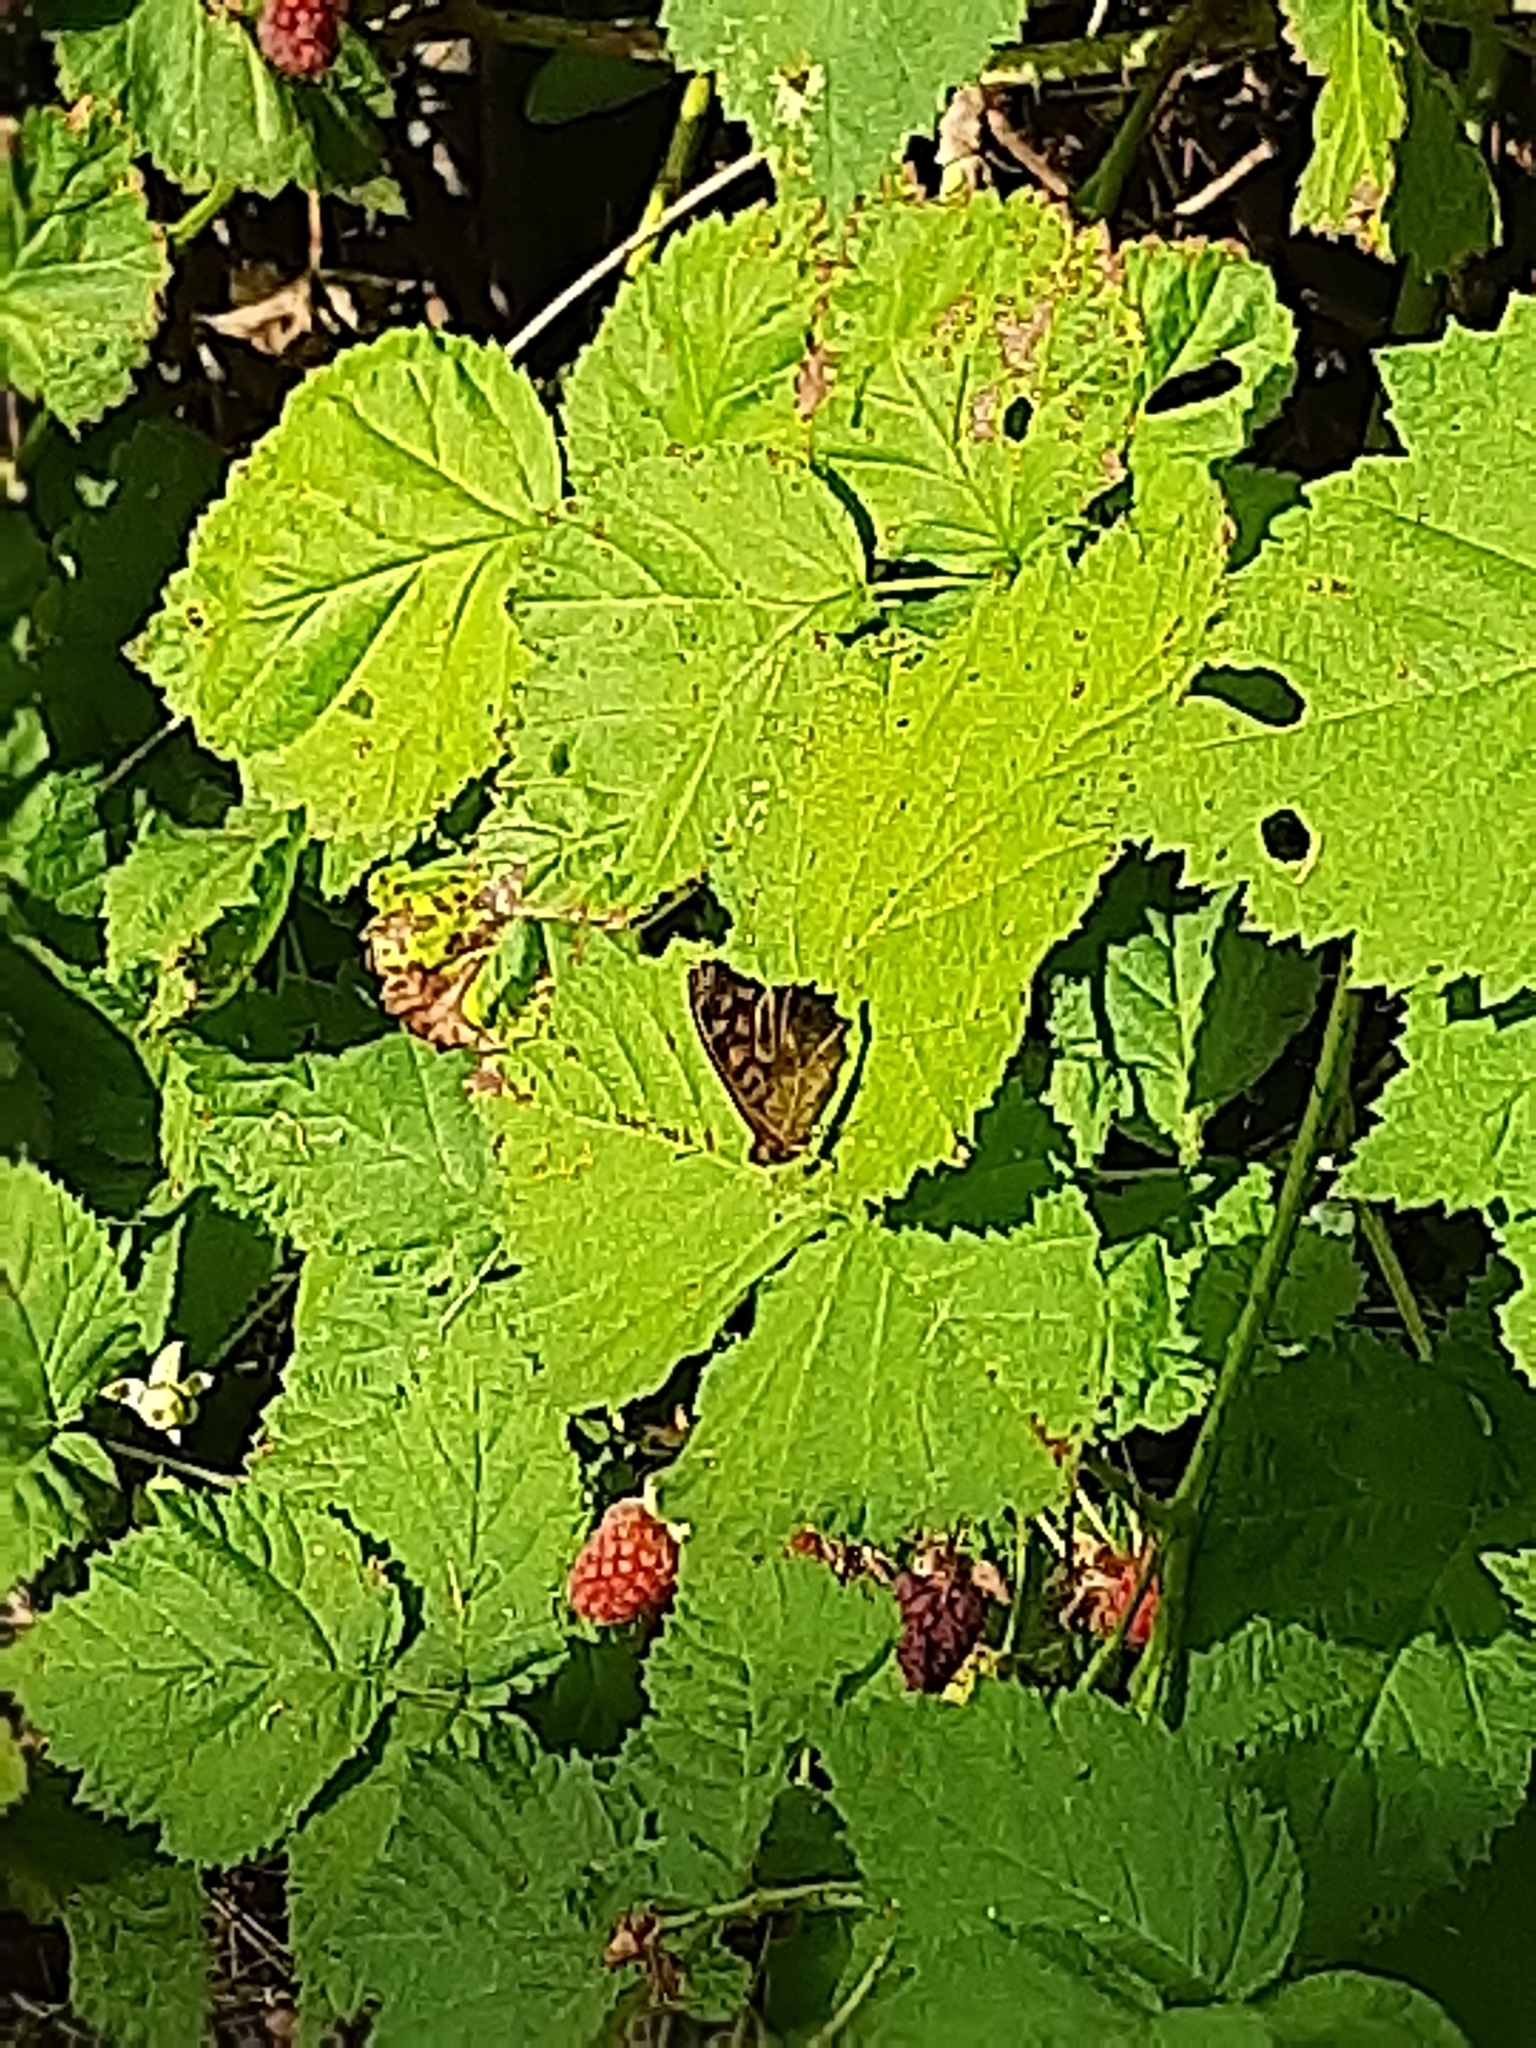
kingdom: Animalia
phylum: Arthropoda
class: Insecta
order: Lepidoptera
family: Nymphalidae
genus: Pararge
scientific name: Pararge aegeria
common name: Speckled wood
